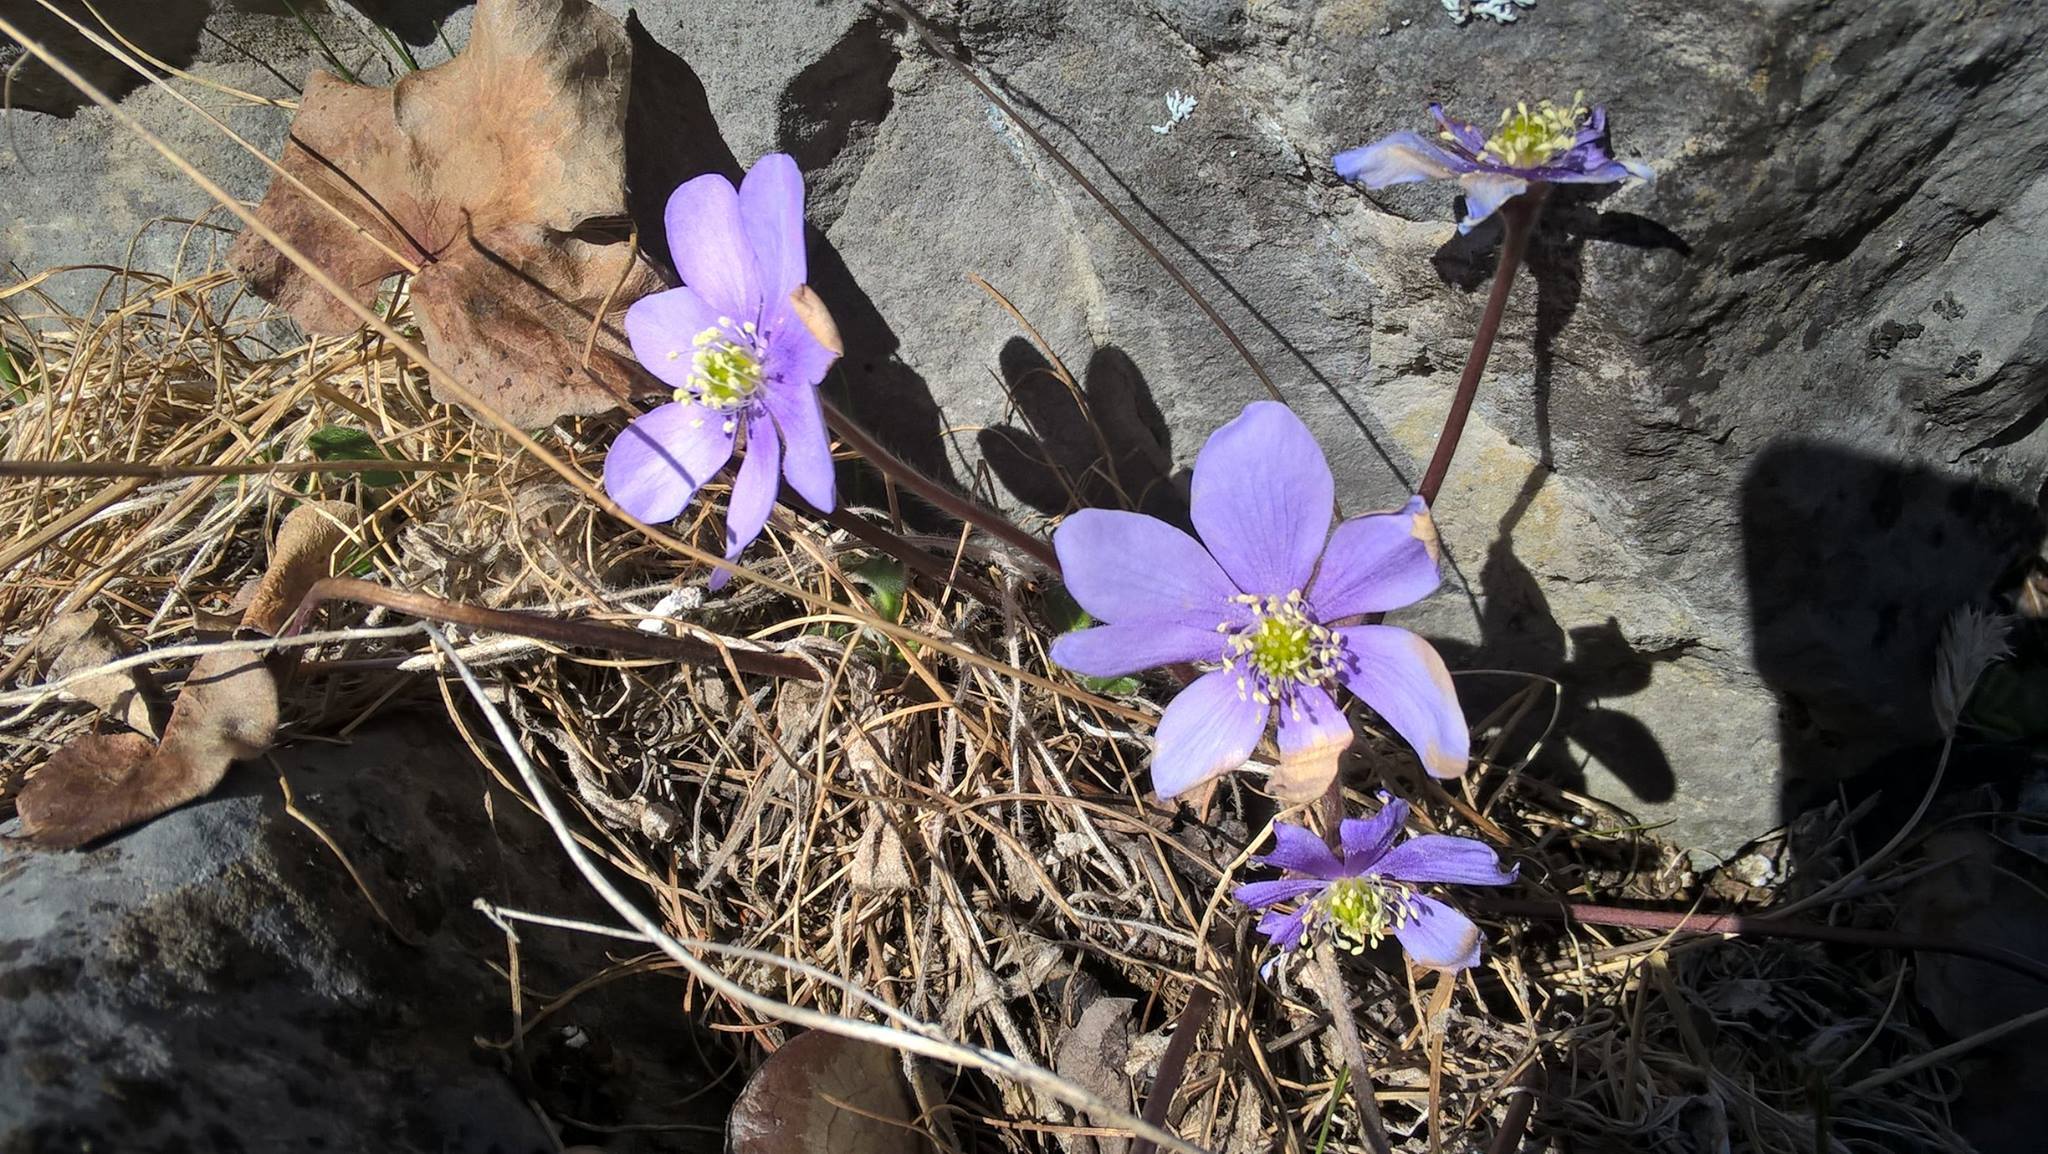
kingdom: Plantae
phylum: Tracheophyta
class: Magnoliopsida
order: Ranunculales
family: Ranunculaceae
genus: Hepatica
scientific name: Hepatica nobilis
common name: Liverleaf
